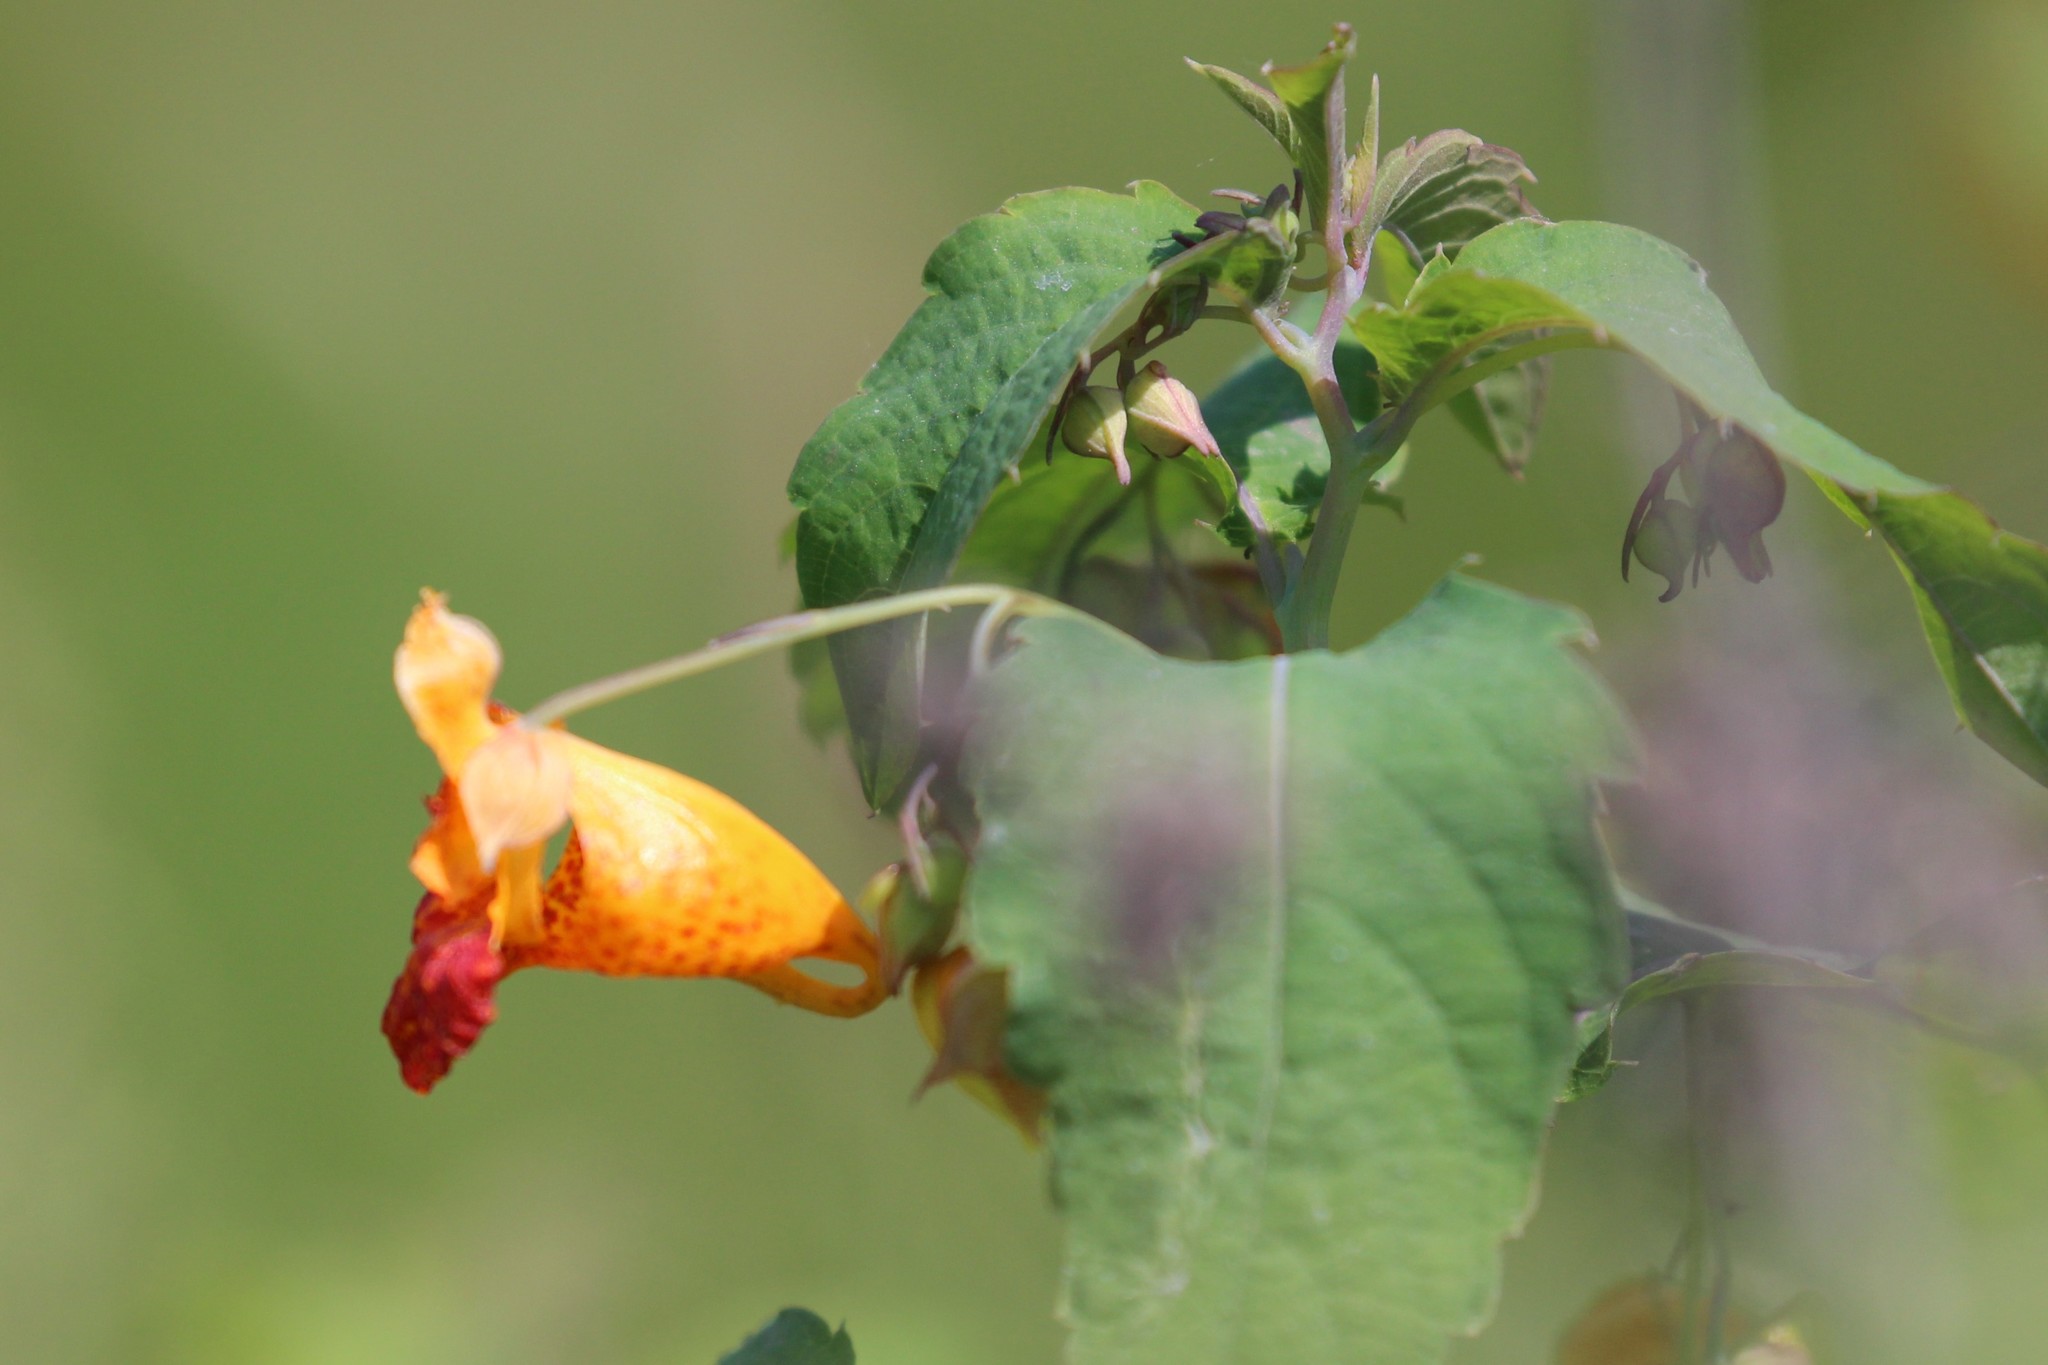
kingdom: Plantae
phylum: Tracheophyta
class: Magnoliopsida
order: Ericales
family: Balsaminaceae
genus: Impatiens
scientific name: Impatiens capensis
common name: Orange balsam
